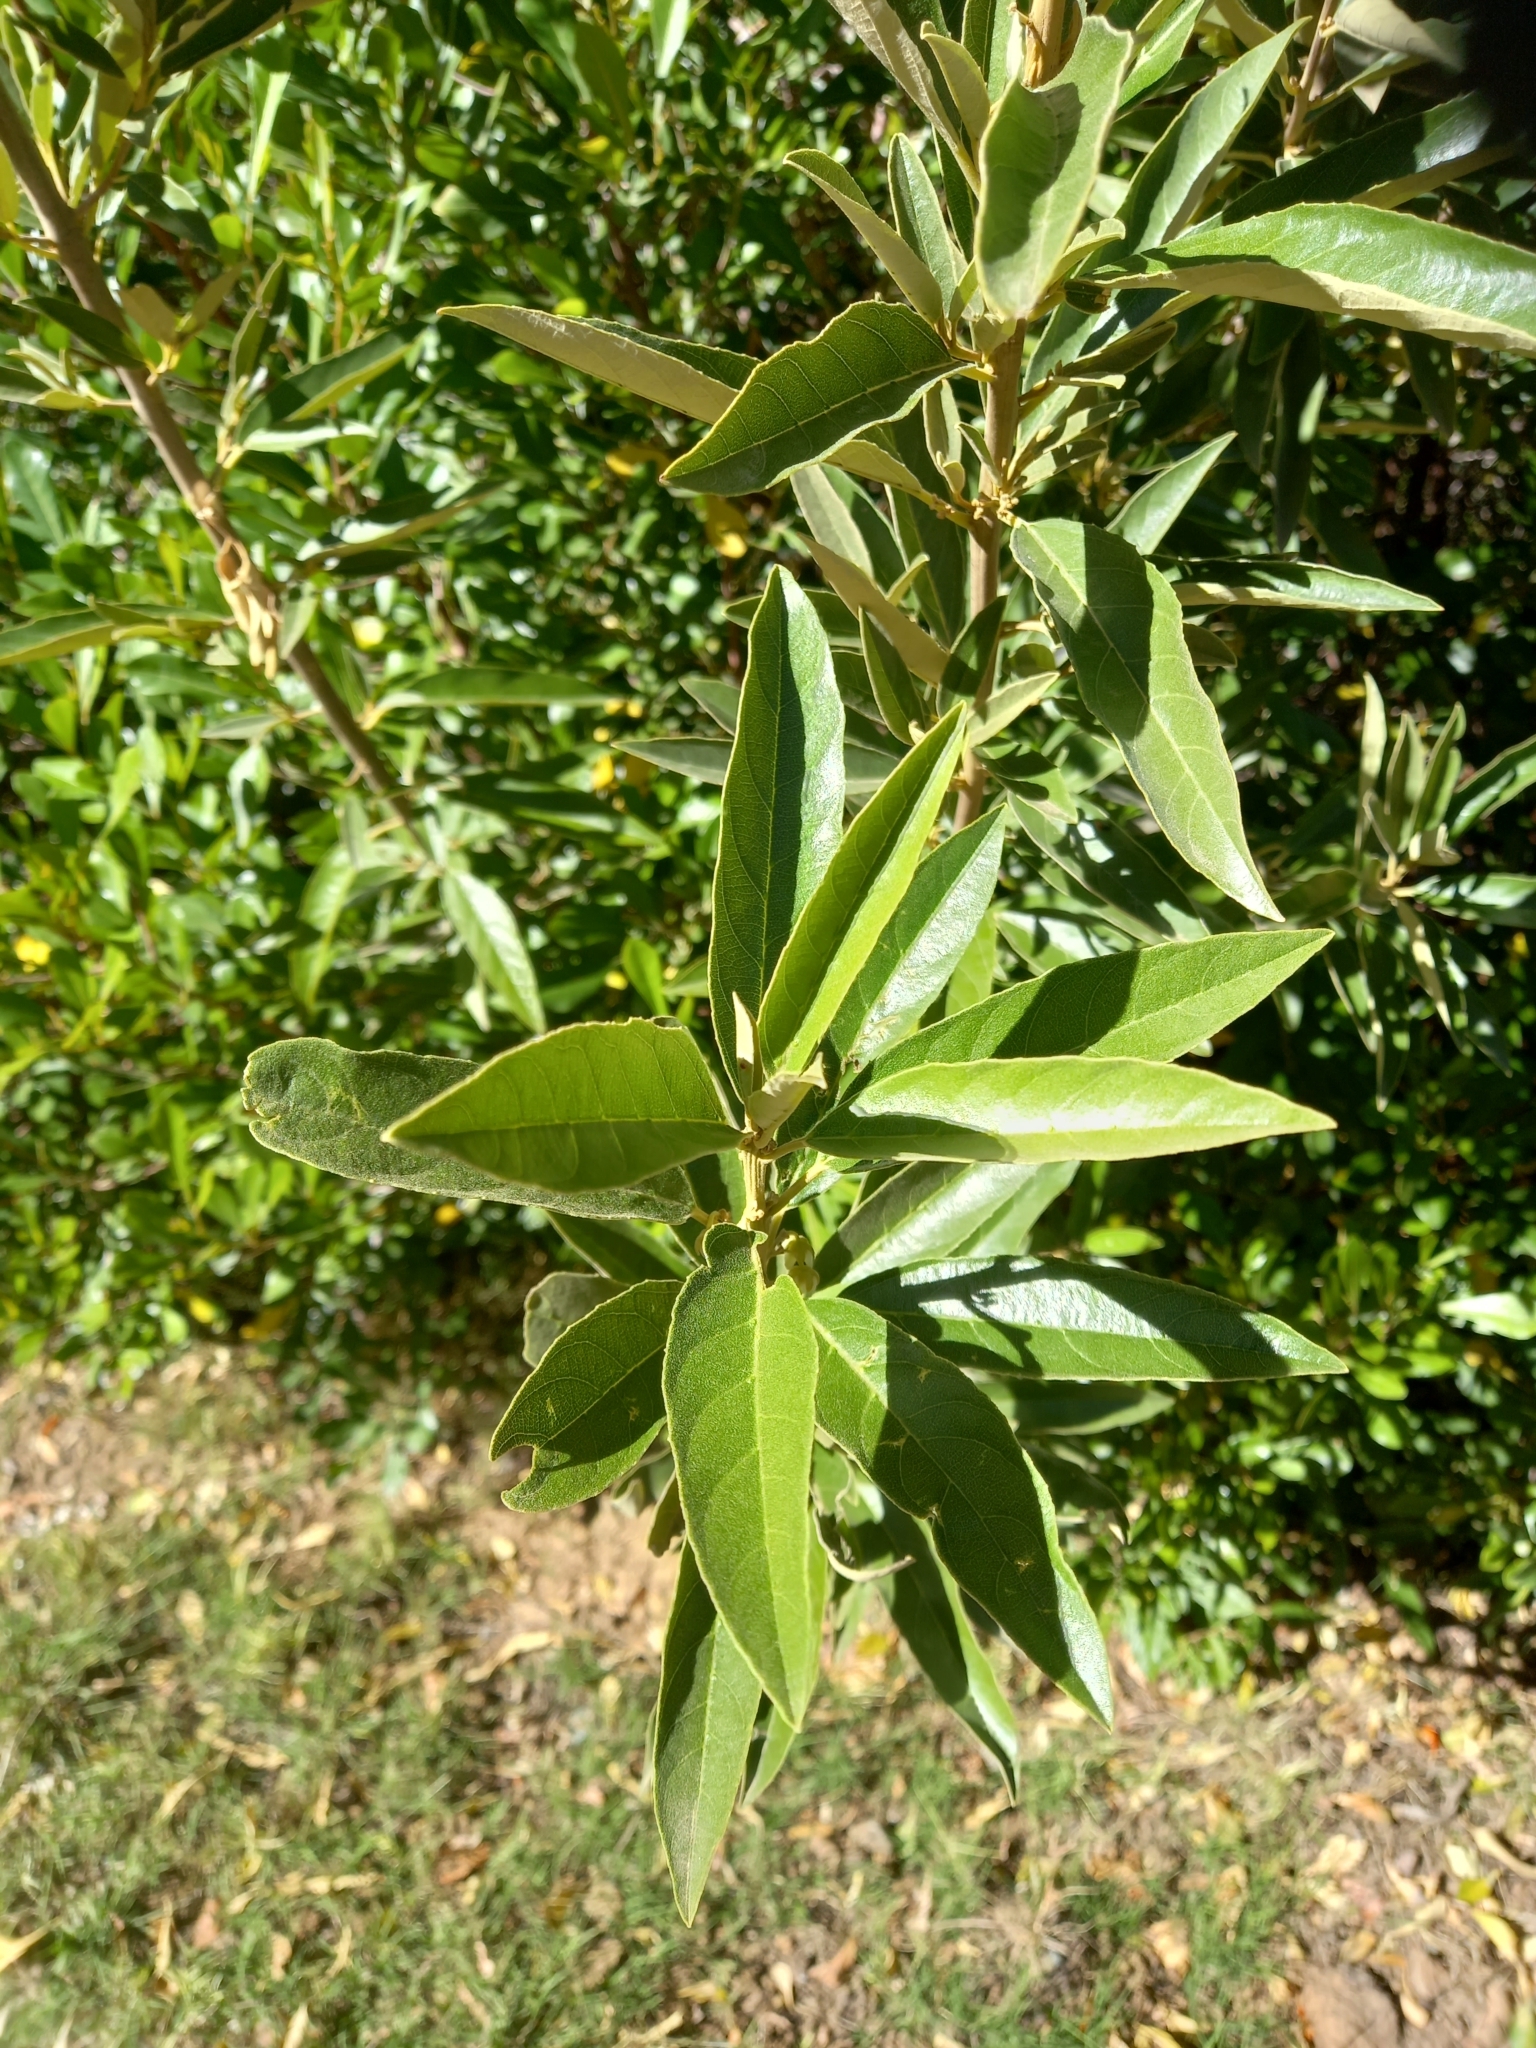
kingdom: Plantae
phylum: Tracheophyta
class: Magnoliopsida
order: Malpighiales
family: Achariaceae
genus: Kiggelaria
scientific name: Kiggelaria africana
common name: Wild peach
